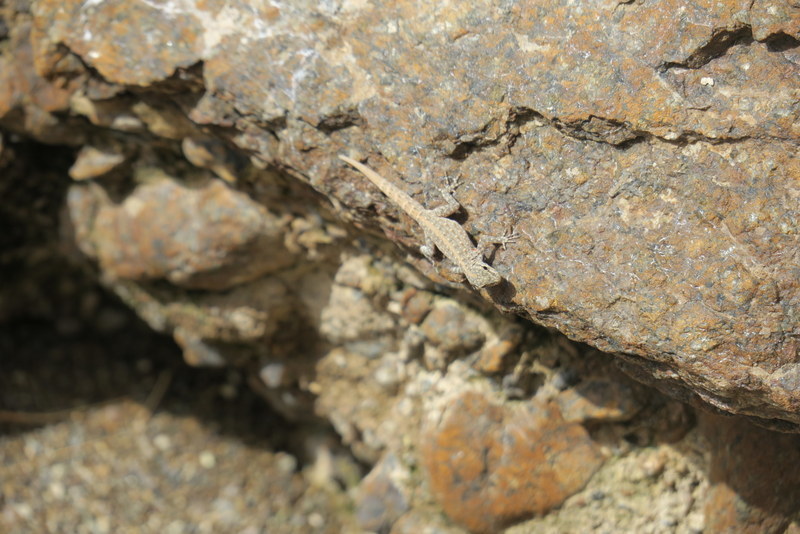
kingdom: Animalia
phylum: Chordata
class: Squamata
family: Sphaerodactylidae
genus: Pristurus
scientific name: Pristurus rupestris
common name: Blanford’s semaphore gecko
